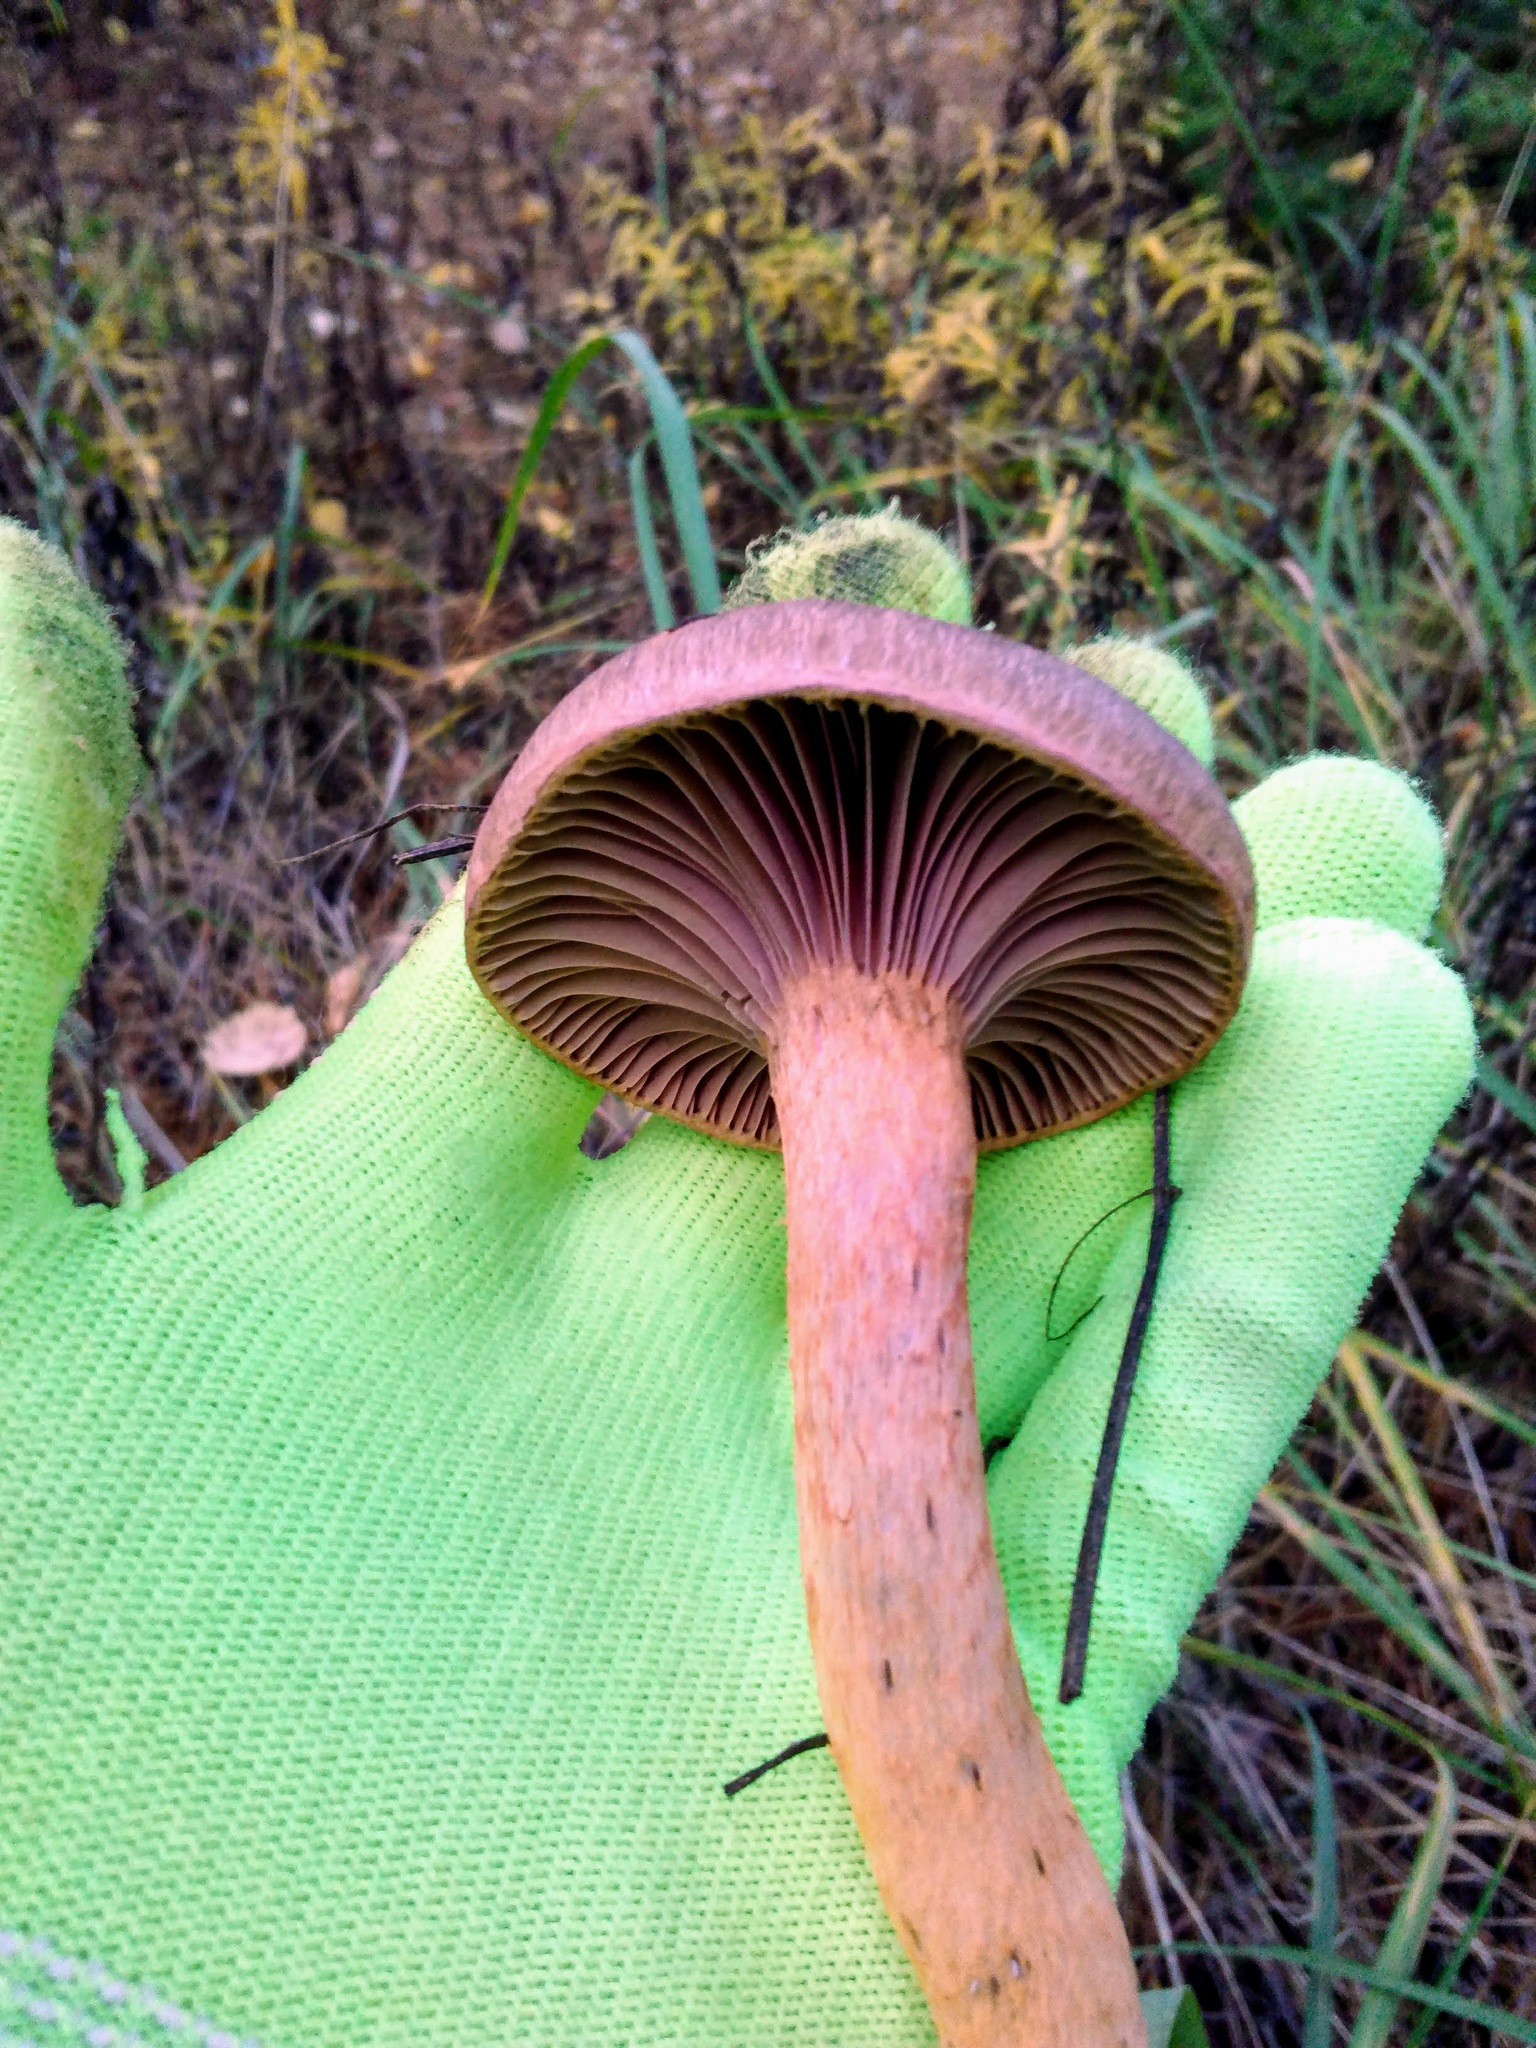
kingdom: Fungi
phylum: Basidiomycota
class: Agaricomycetes
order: Boletales
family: Gomphidiaceae
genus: Chroogomphus
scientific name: Chroogomphus rutilus
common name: Copper spike
